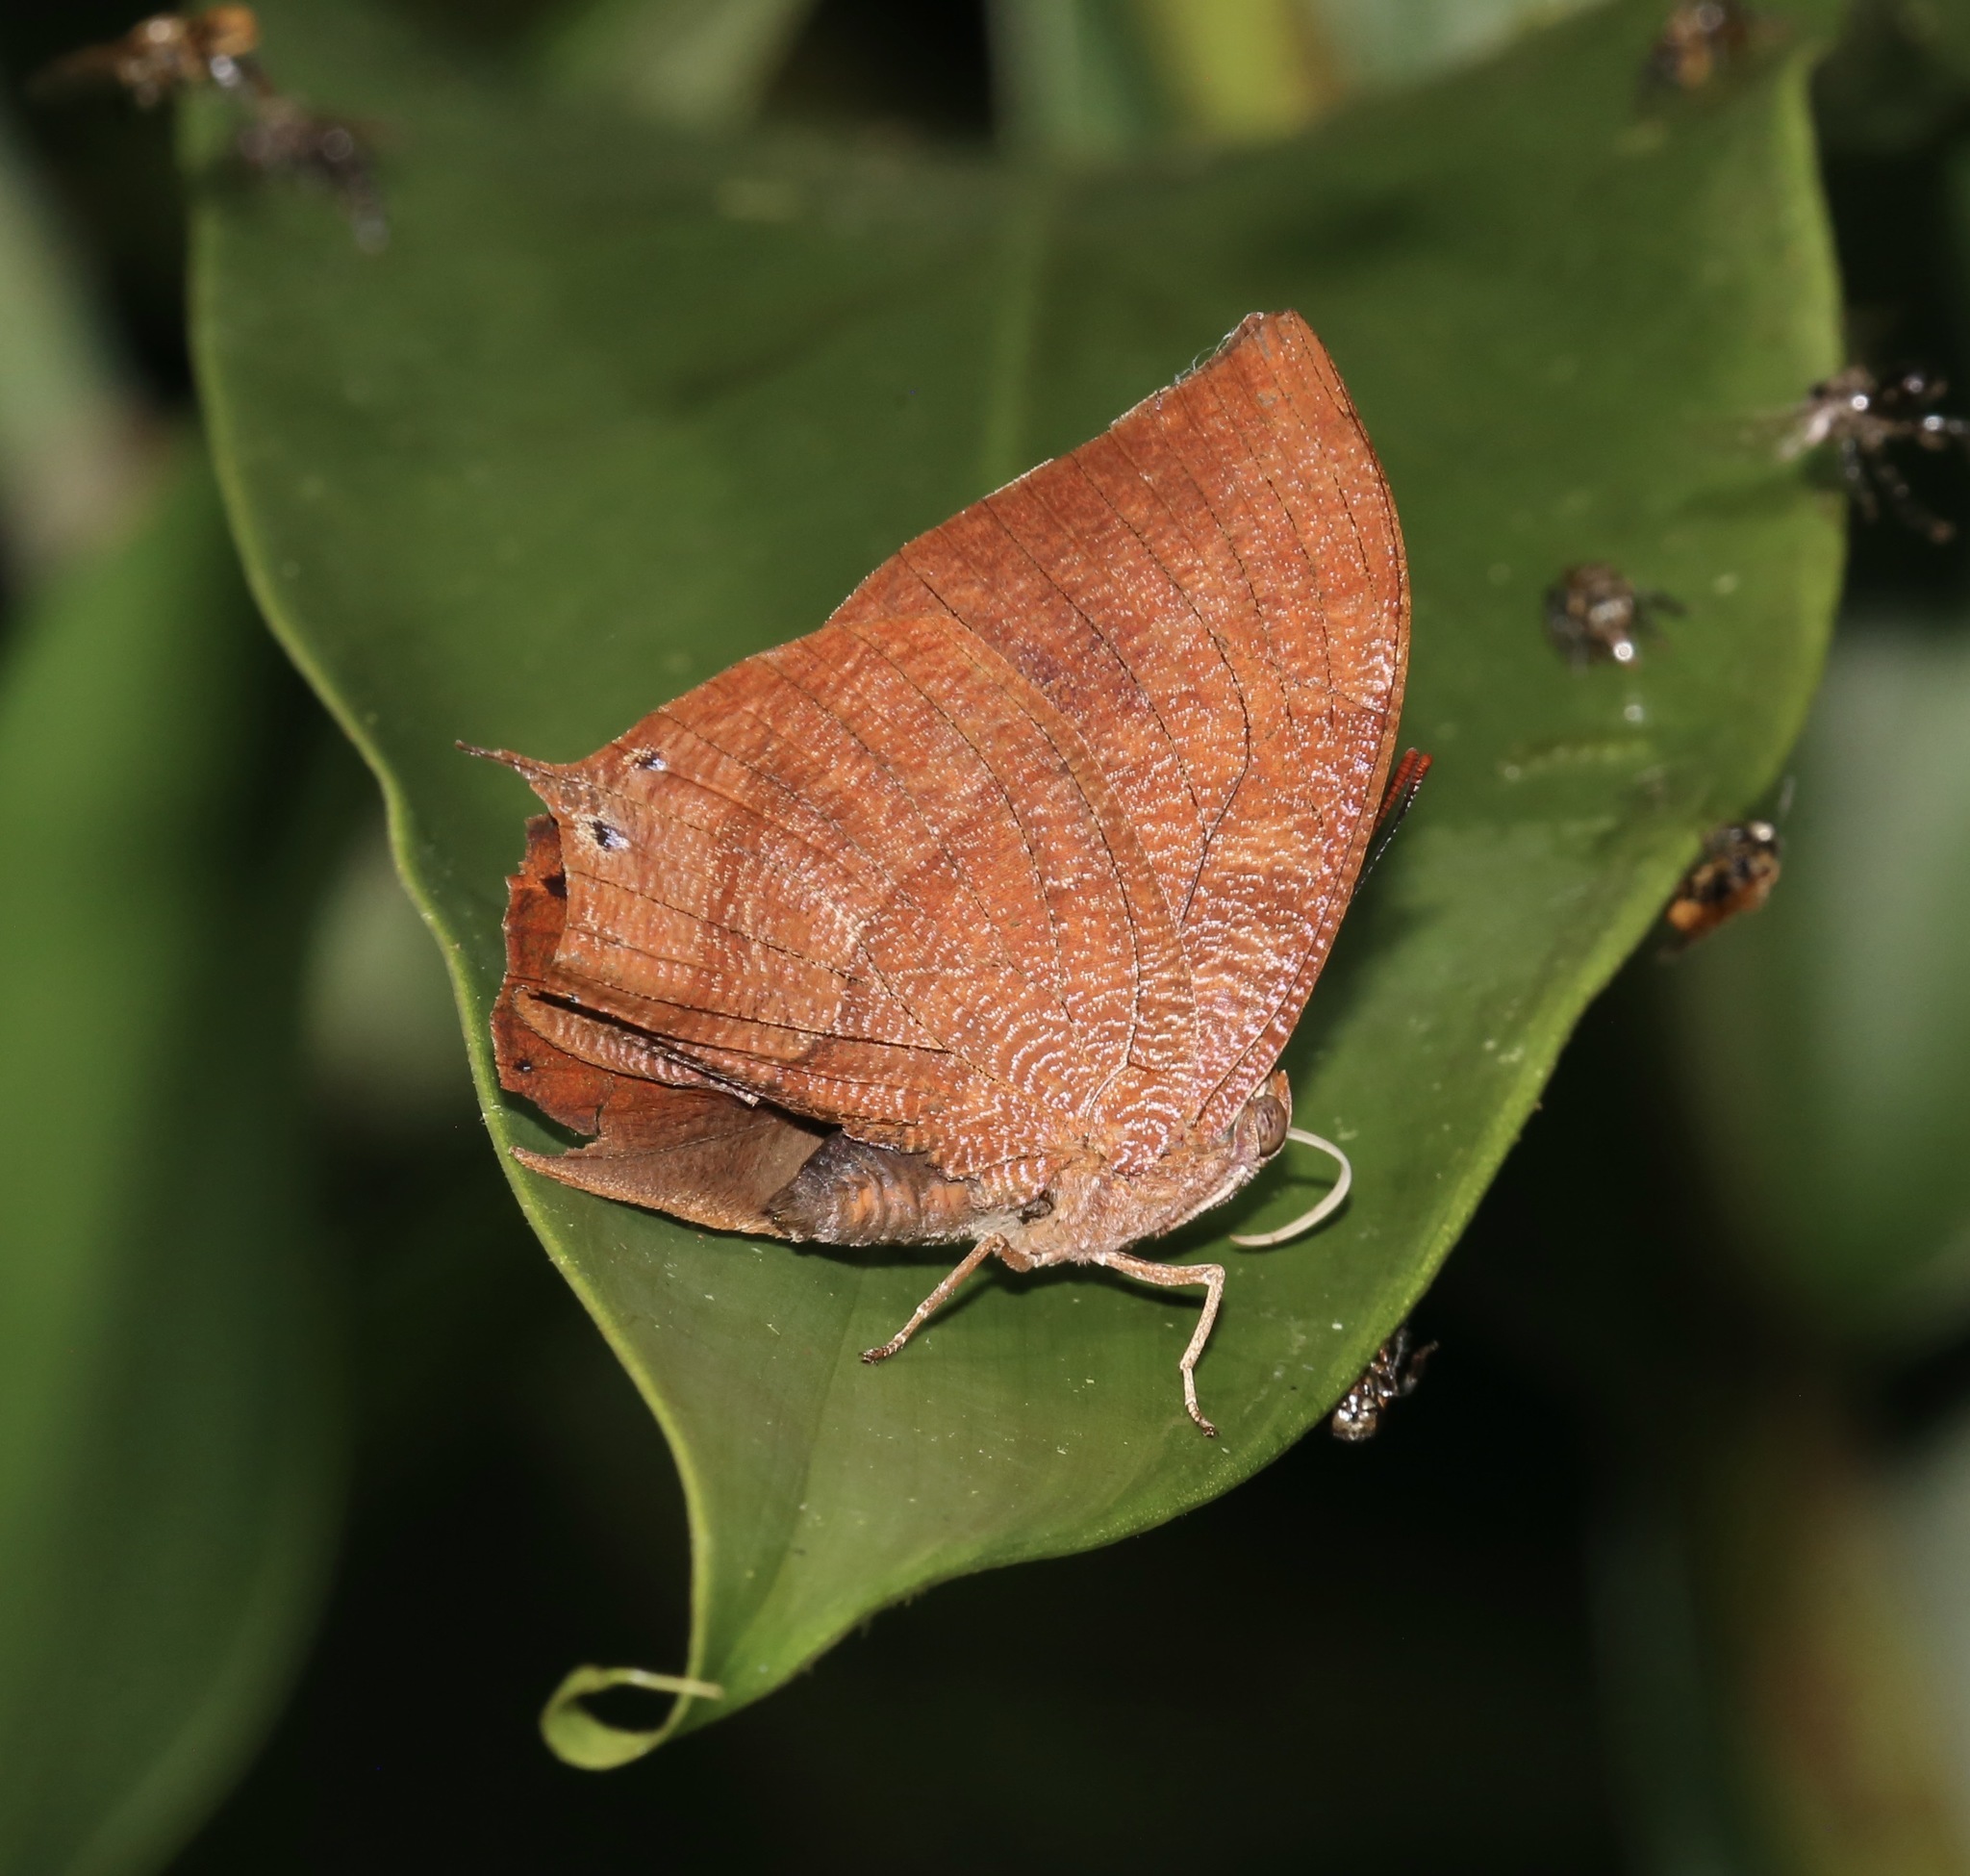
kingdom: Animalia
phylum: Arthropoda
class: Insecta
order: Lepidoptera
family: Nymphalidae
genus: Fountainea
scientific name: Fountainea
